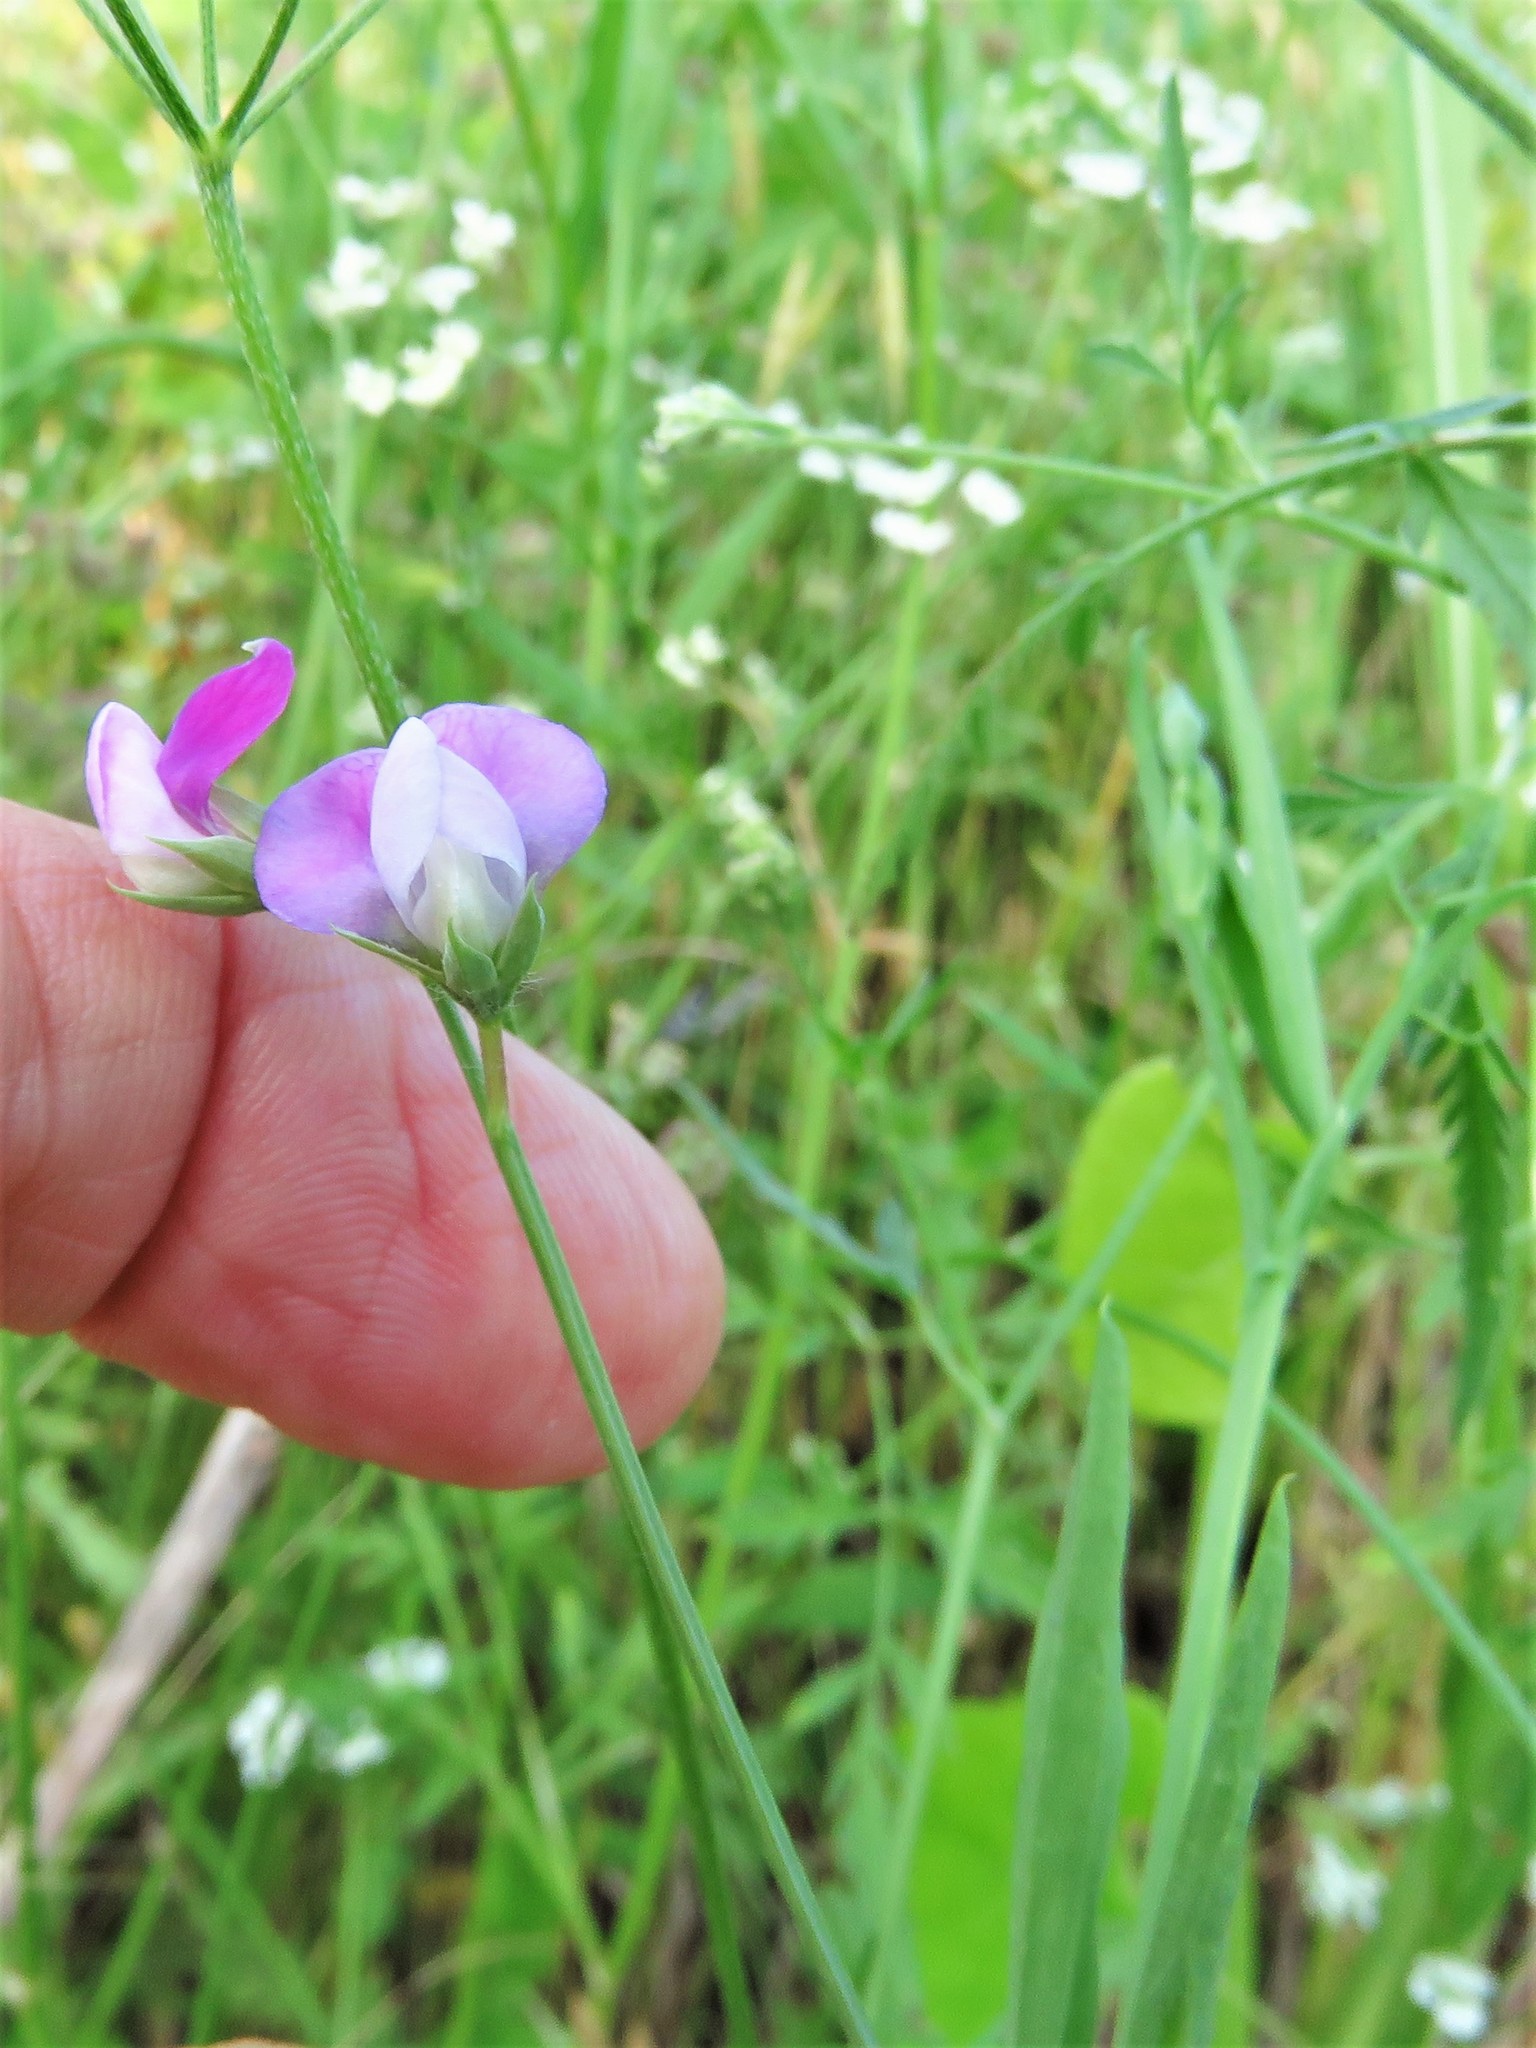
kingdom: Plantae
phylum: Tracheophyta
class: Magnoliopsida
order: Fabales
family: Fabaceae
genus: Lathyrus
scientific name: Lathyrus hirsutus
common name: Hairy vetchling
